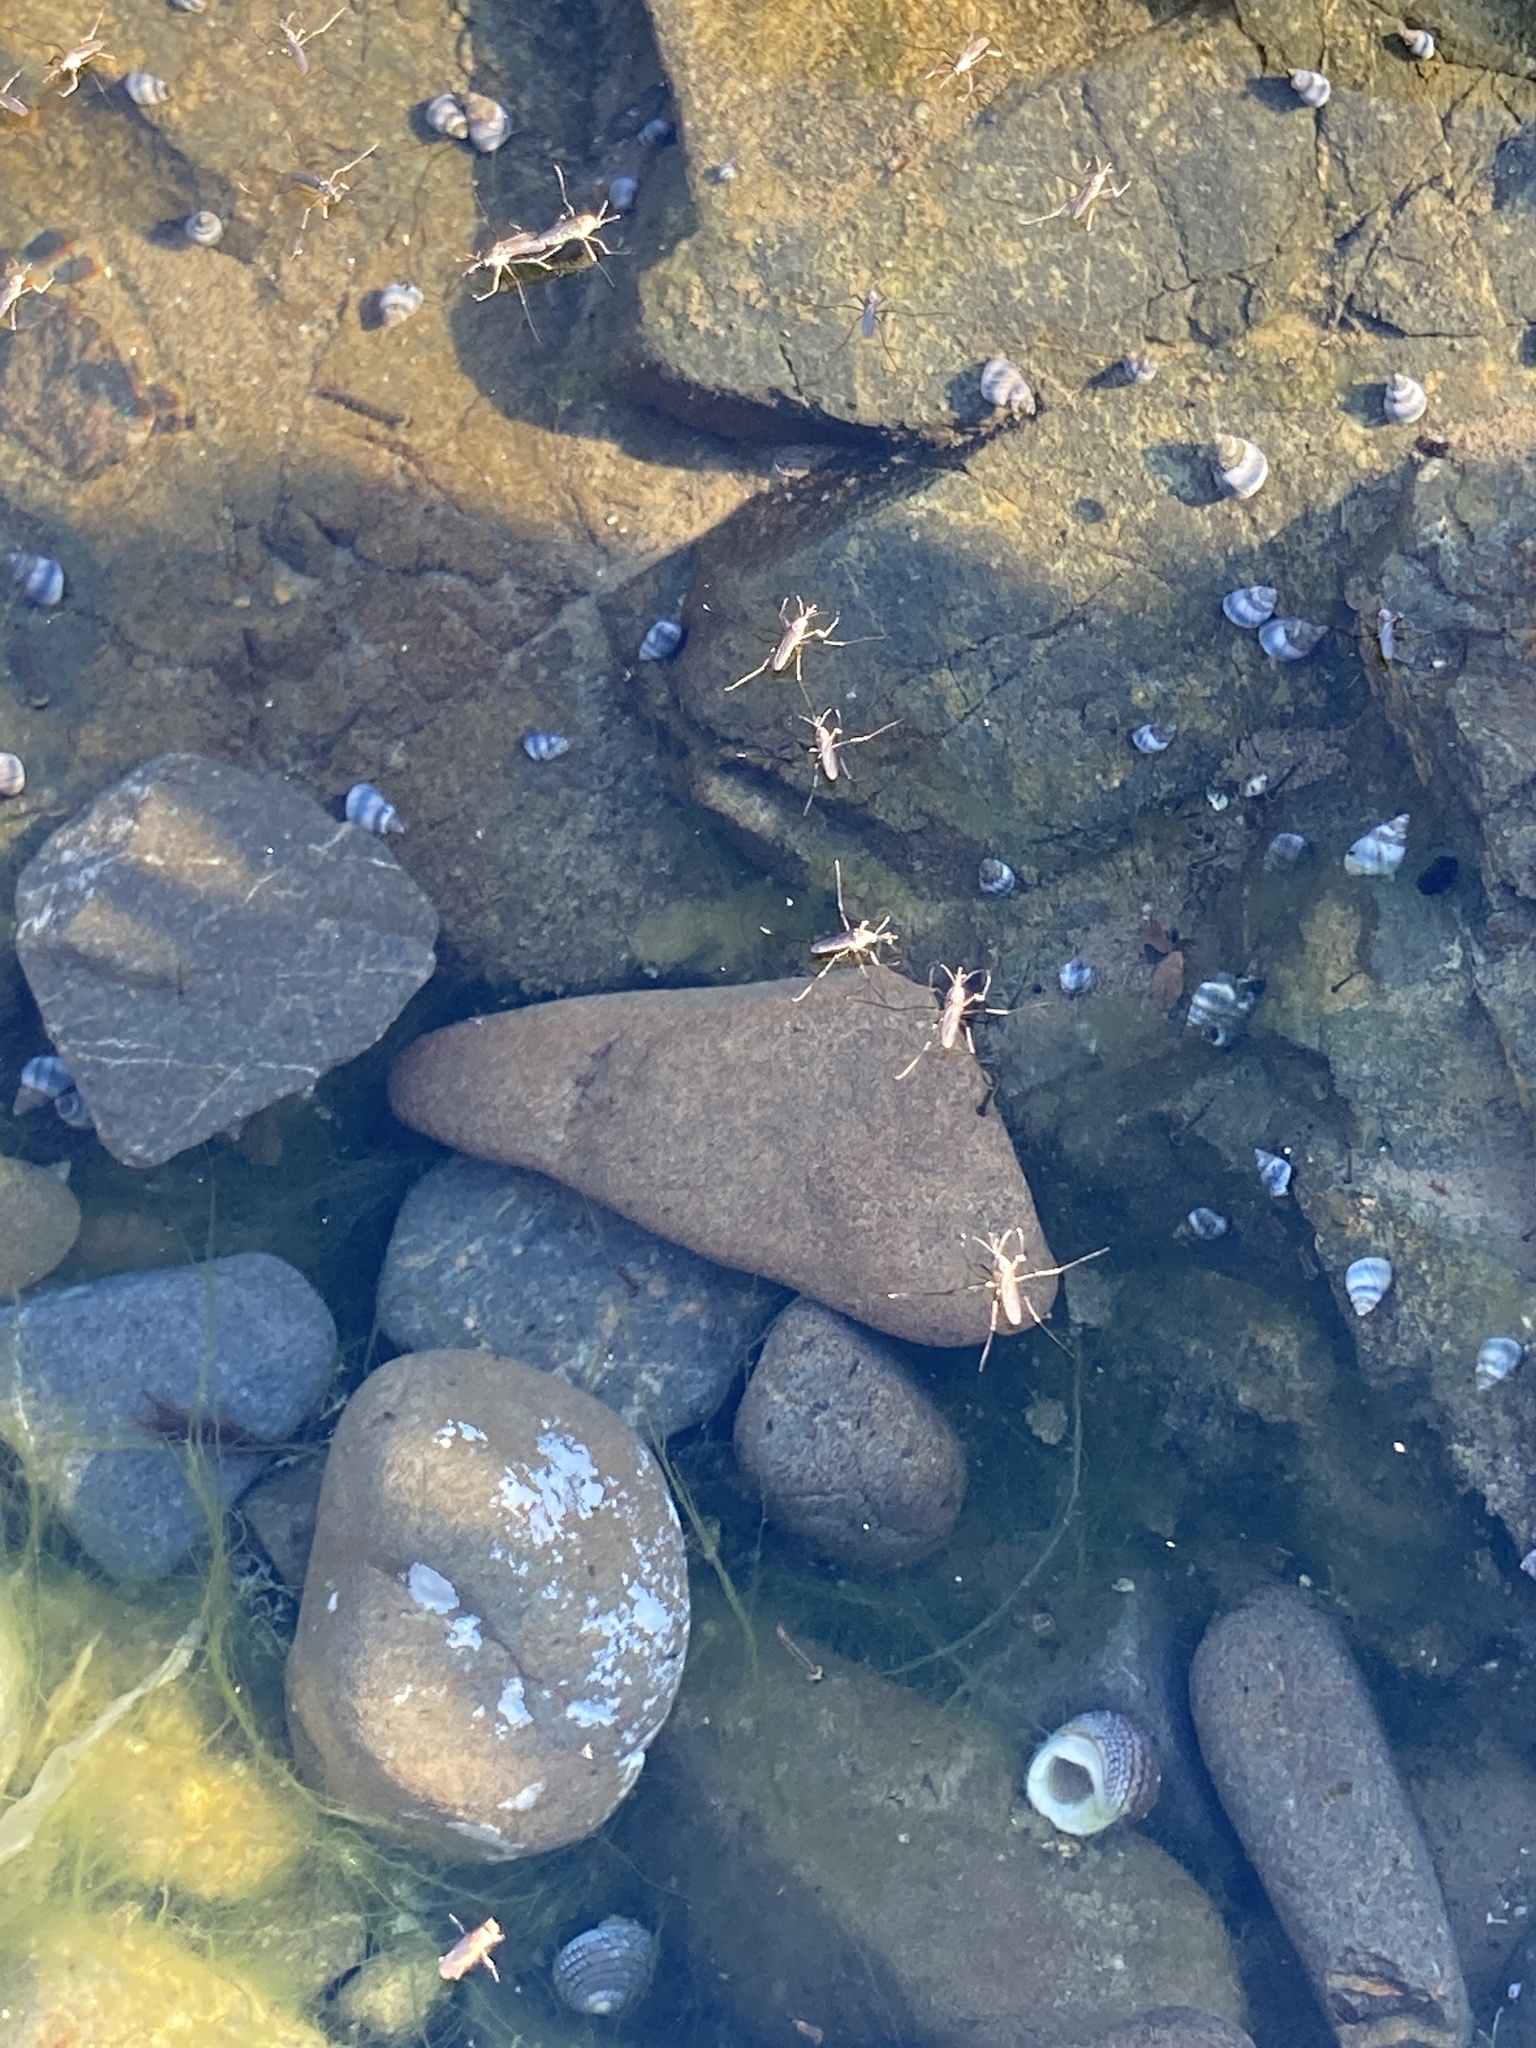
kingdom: Animalia
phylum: Arthropoda
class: Insecta
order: Diptera
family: Culicidae
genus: Opifex
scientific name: Opifex fuscus
